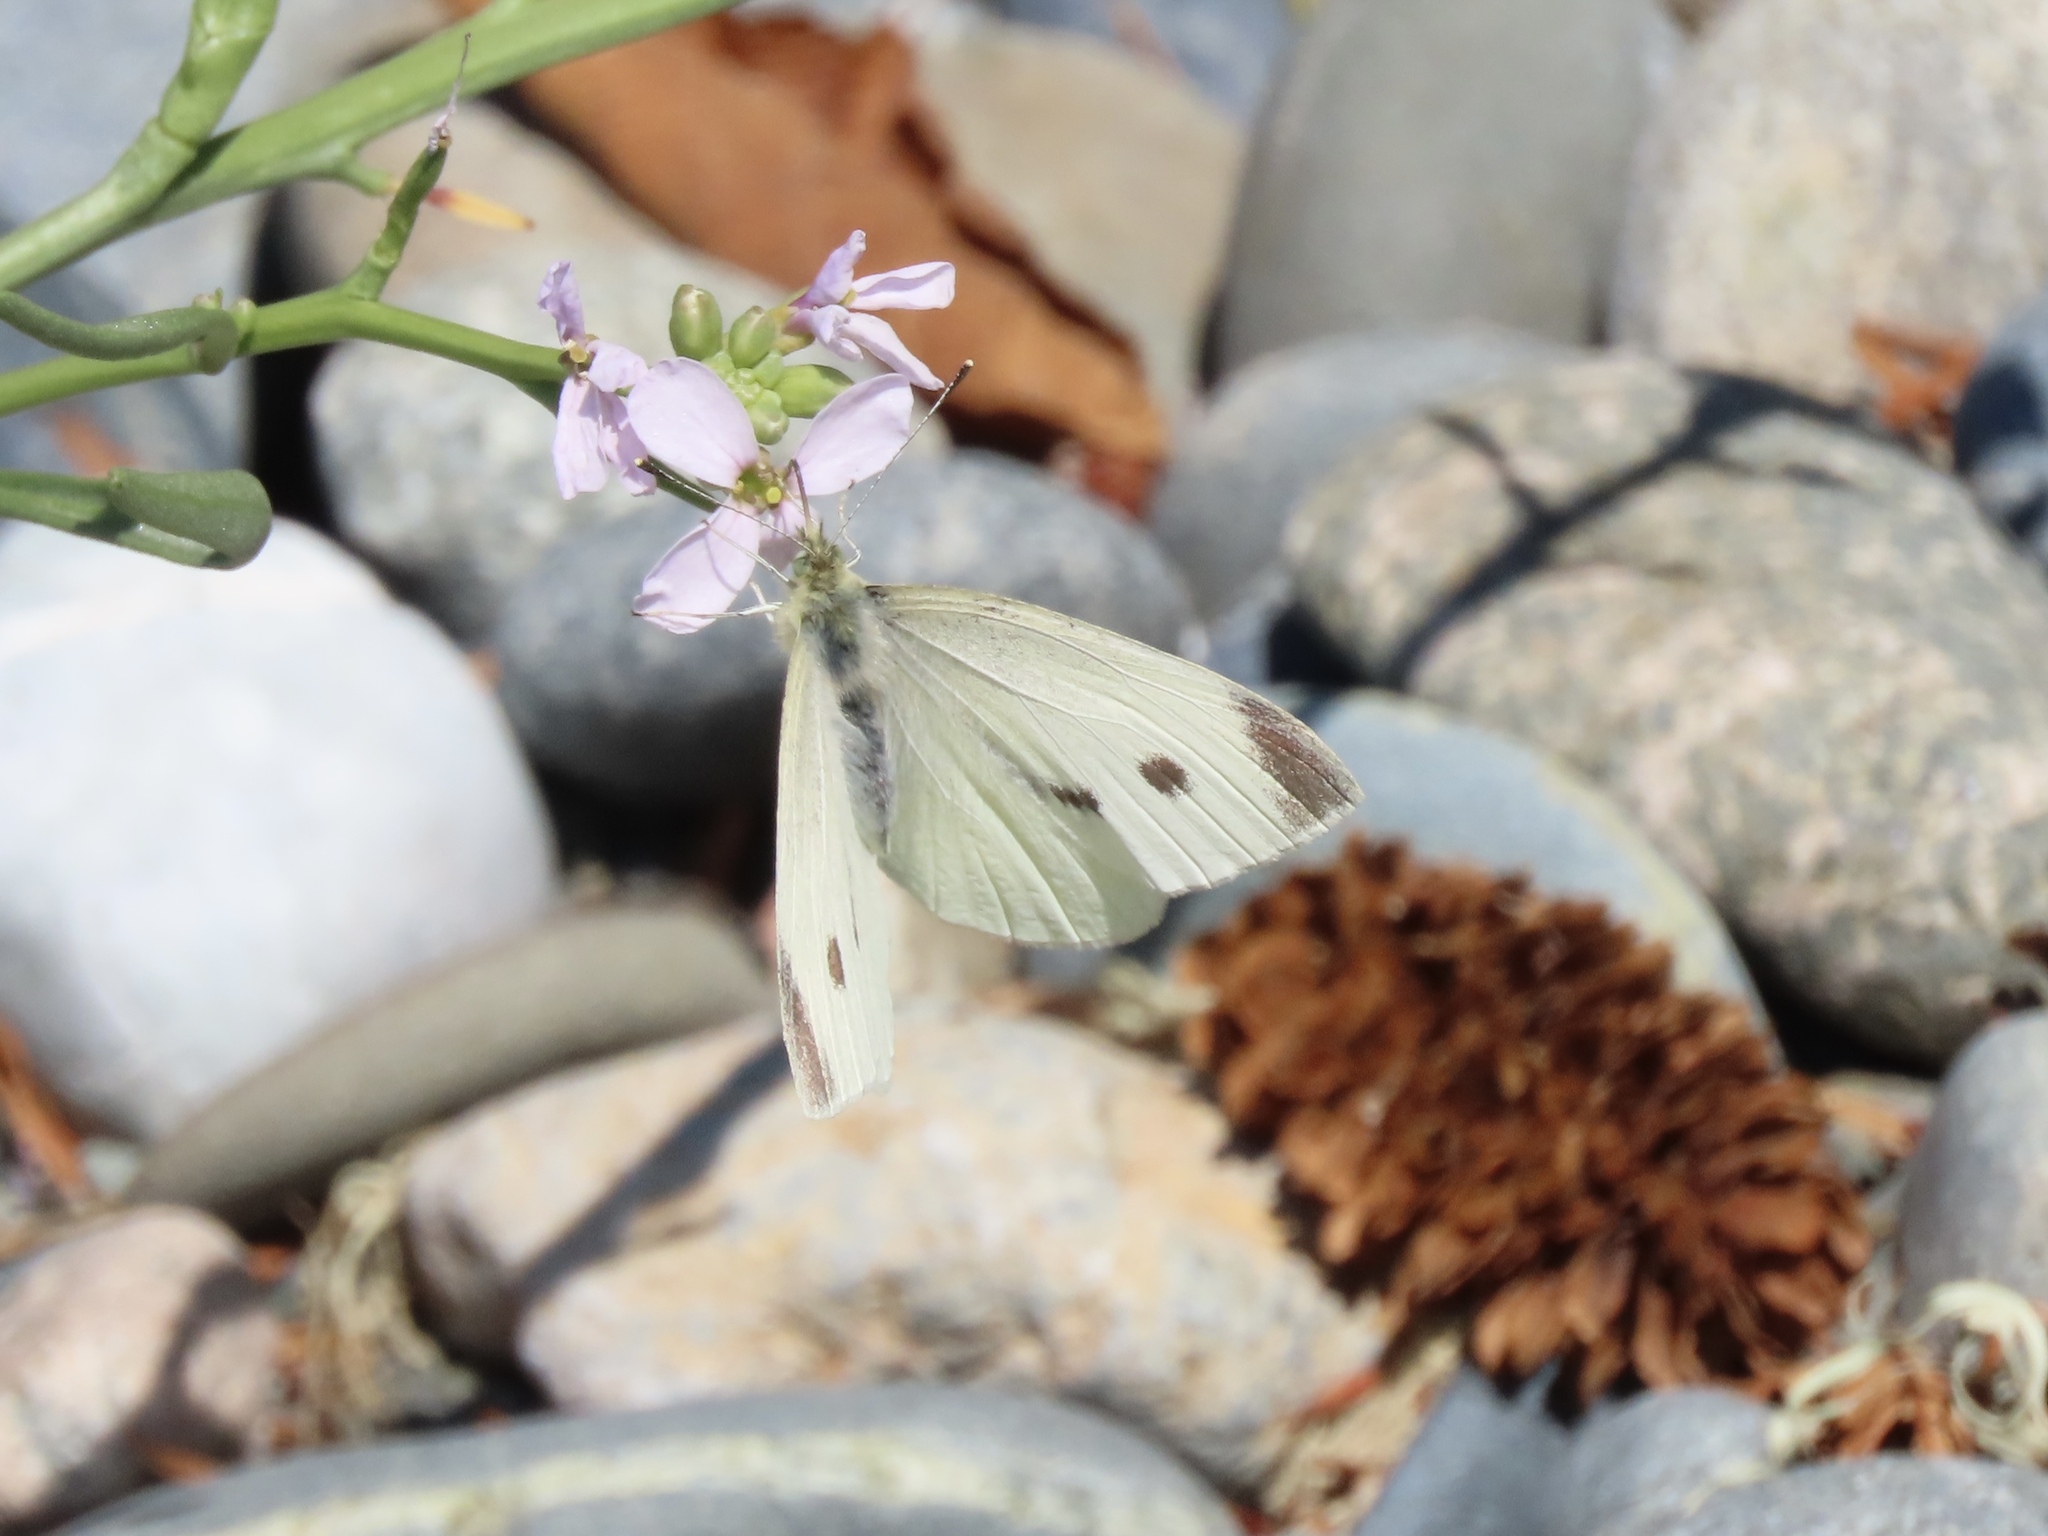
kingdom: Animalia
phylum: Arthropoda
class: Insecta
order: Lepidoptera
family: Pieridae
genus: Pieris
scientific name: Pieris rapae
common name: Small white
